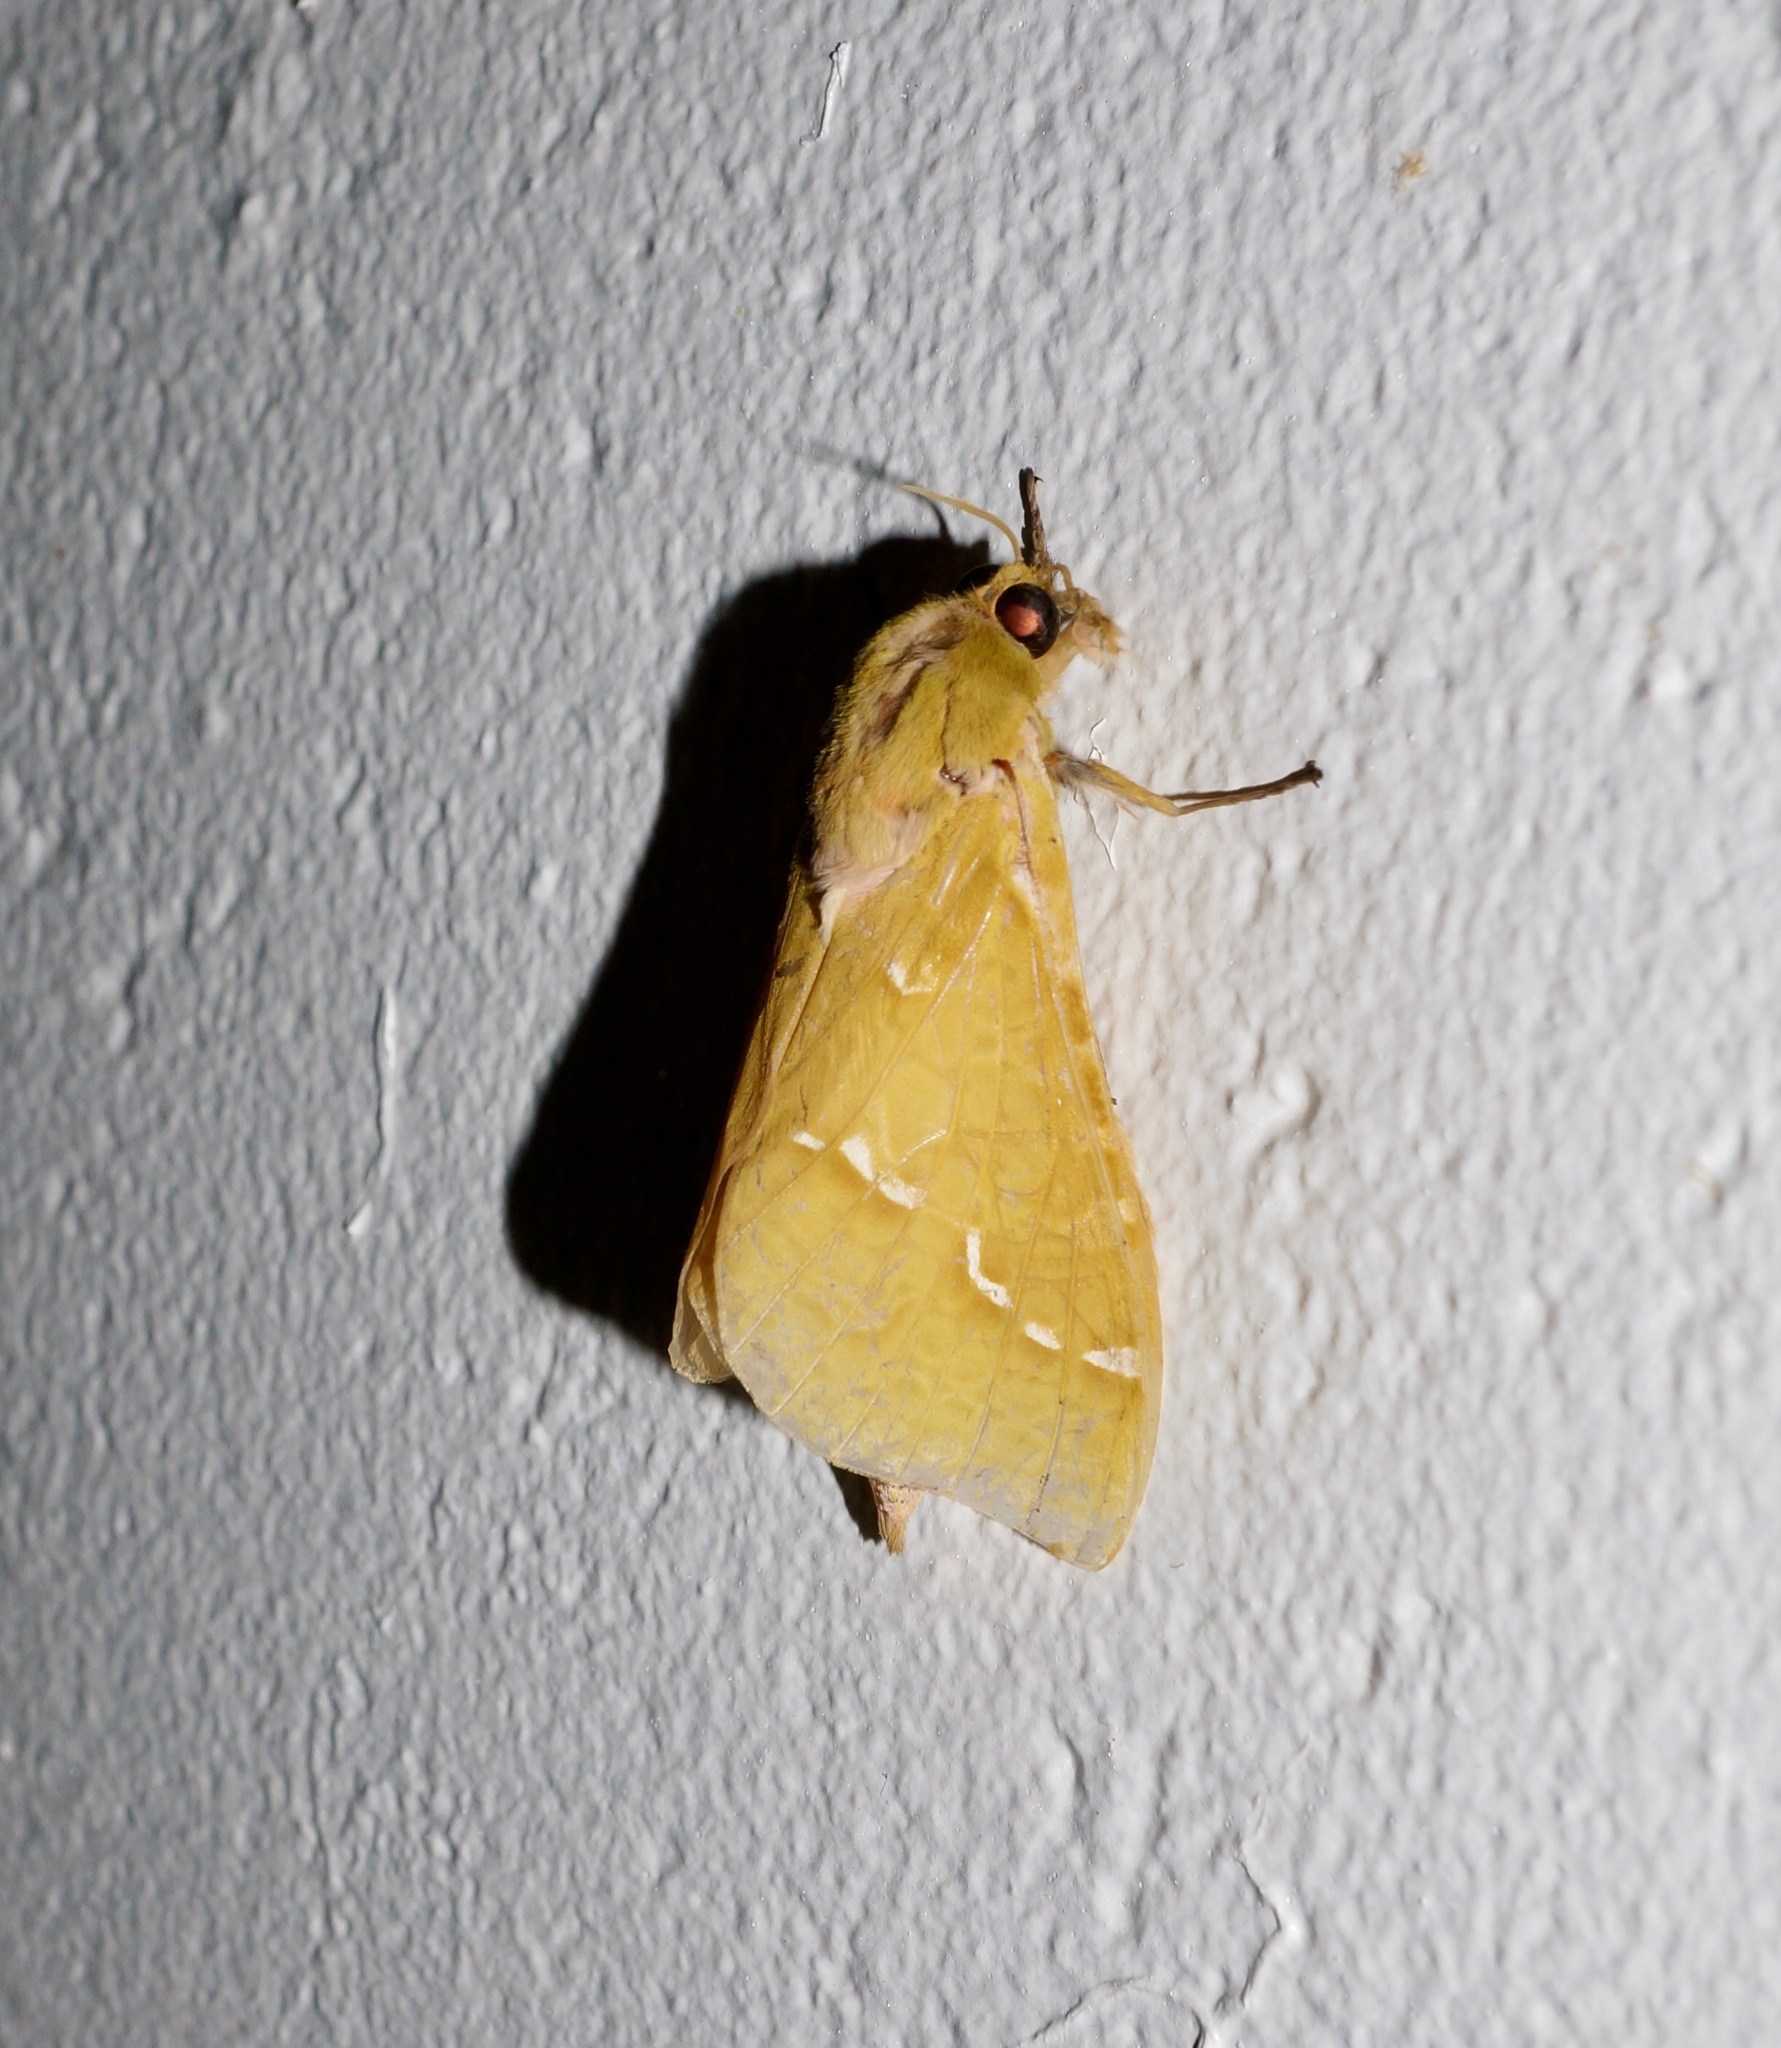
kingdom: Animalia
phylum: Arthropoda
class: Insecta
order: Lepidoptera
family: Hepialidae
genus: Aenetus
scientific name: Aenetus virescens
